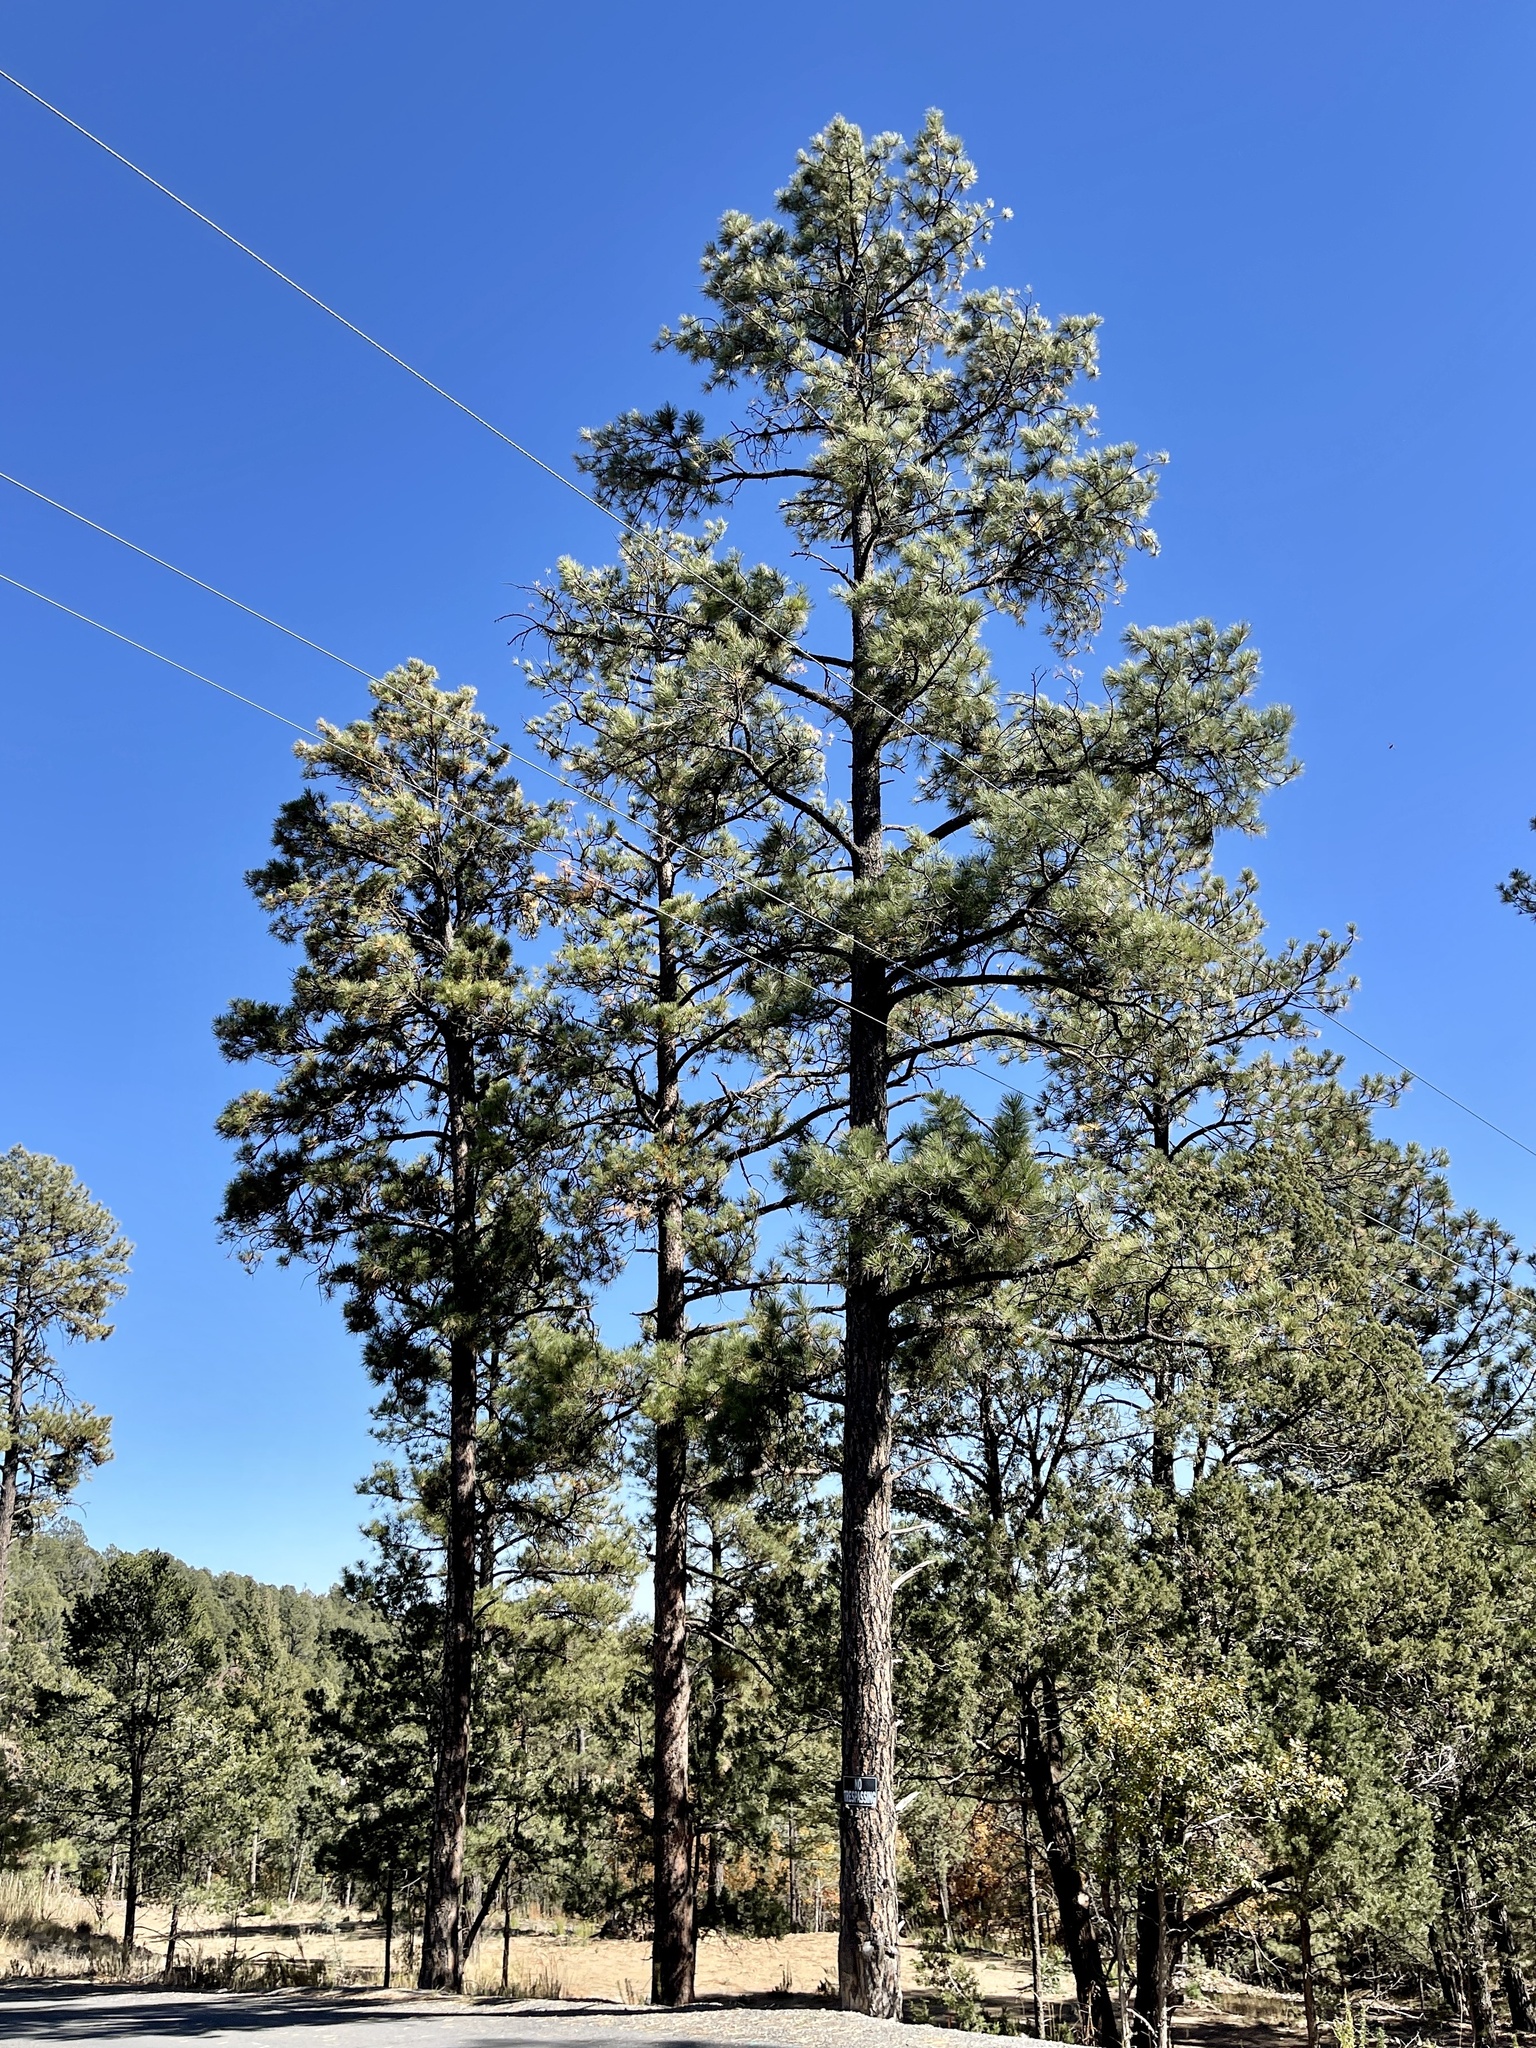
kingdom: Plantae
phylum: Tracheophyta
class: Pinopsida
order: Pinales
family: Pinaceae
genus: Pinus
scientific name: Pinus ponderosa
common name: Western yellow-pine
